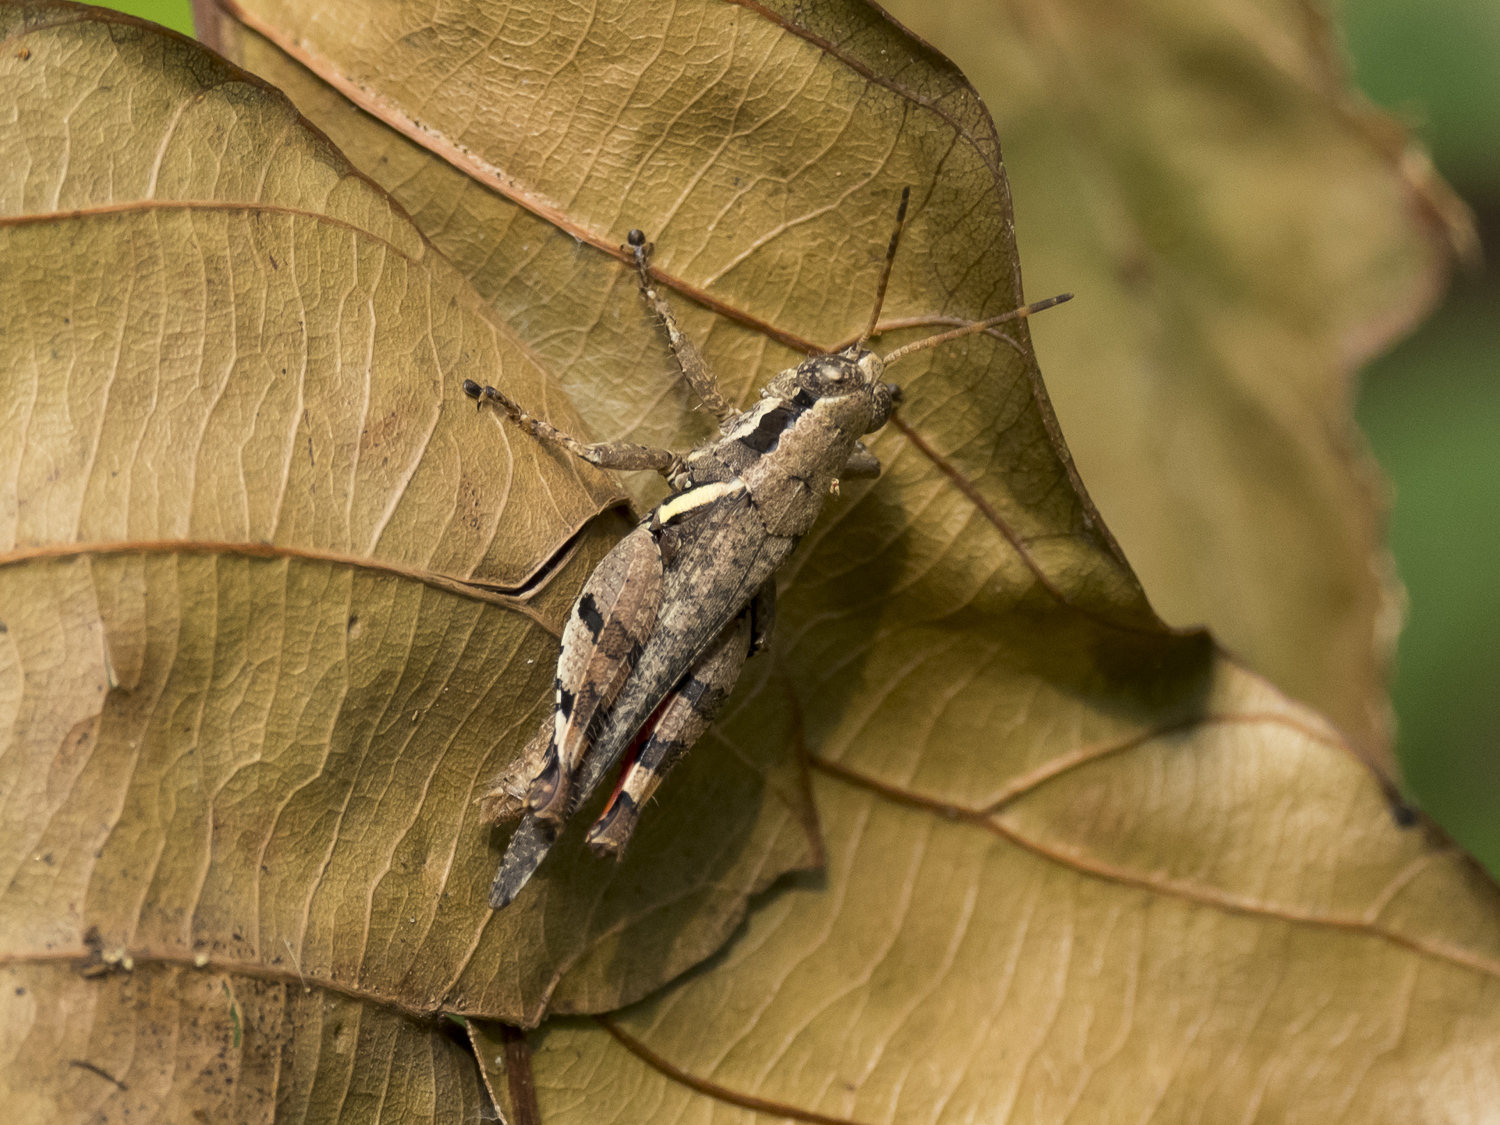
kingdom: Animalia
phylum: Arthropoda
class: Insecta
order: Orthoptera
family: Acrididae
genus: Xenocatantops
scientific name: Xenocatantops karnyi
